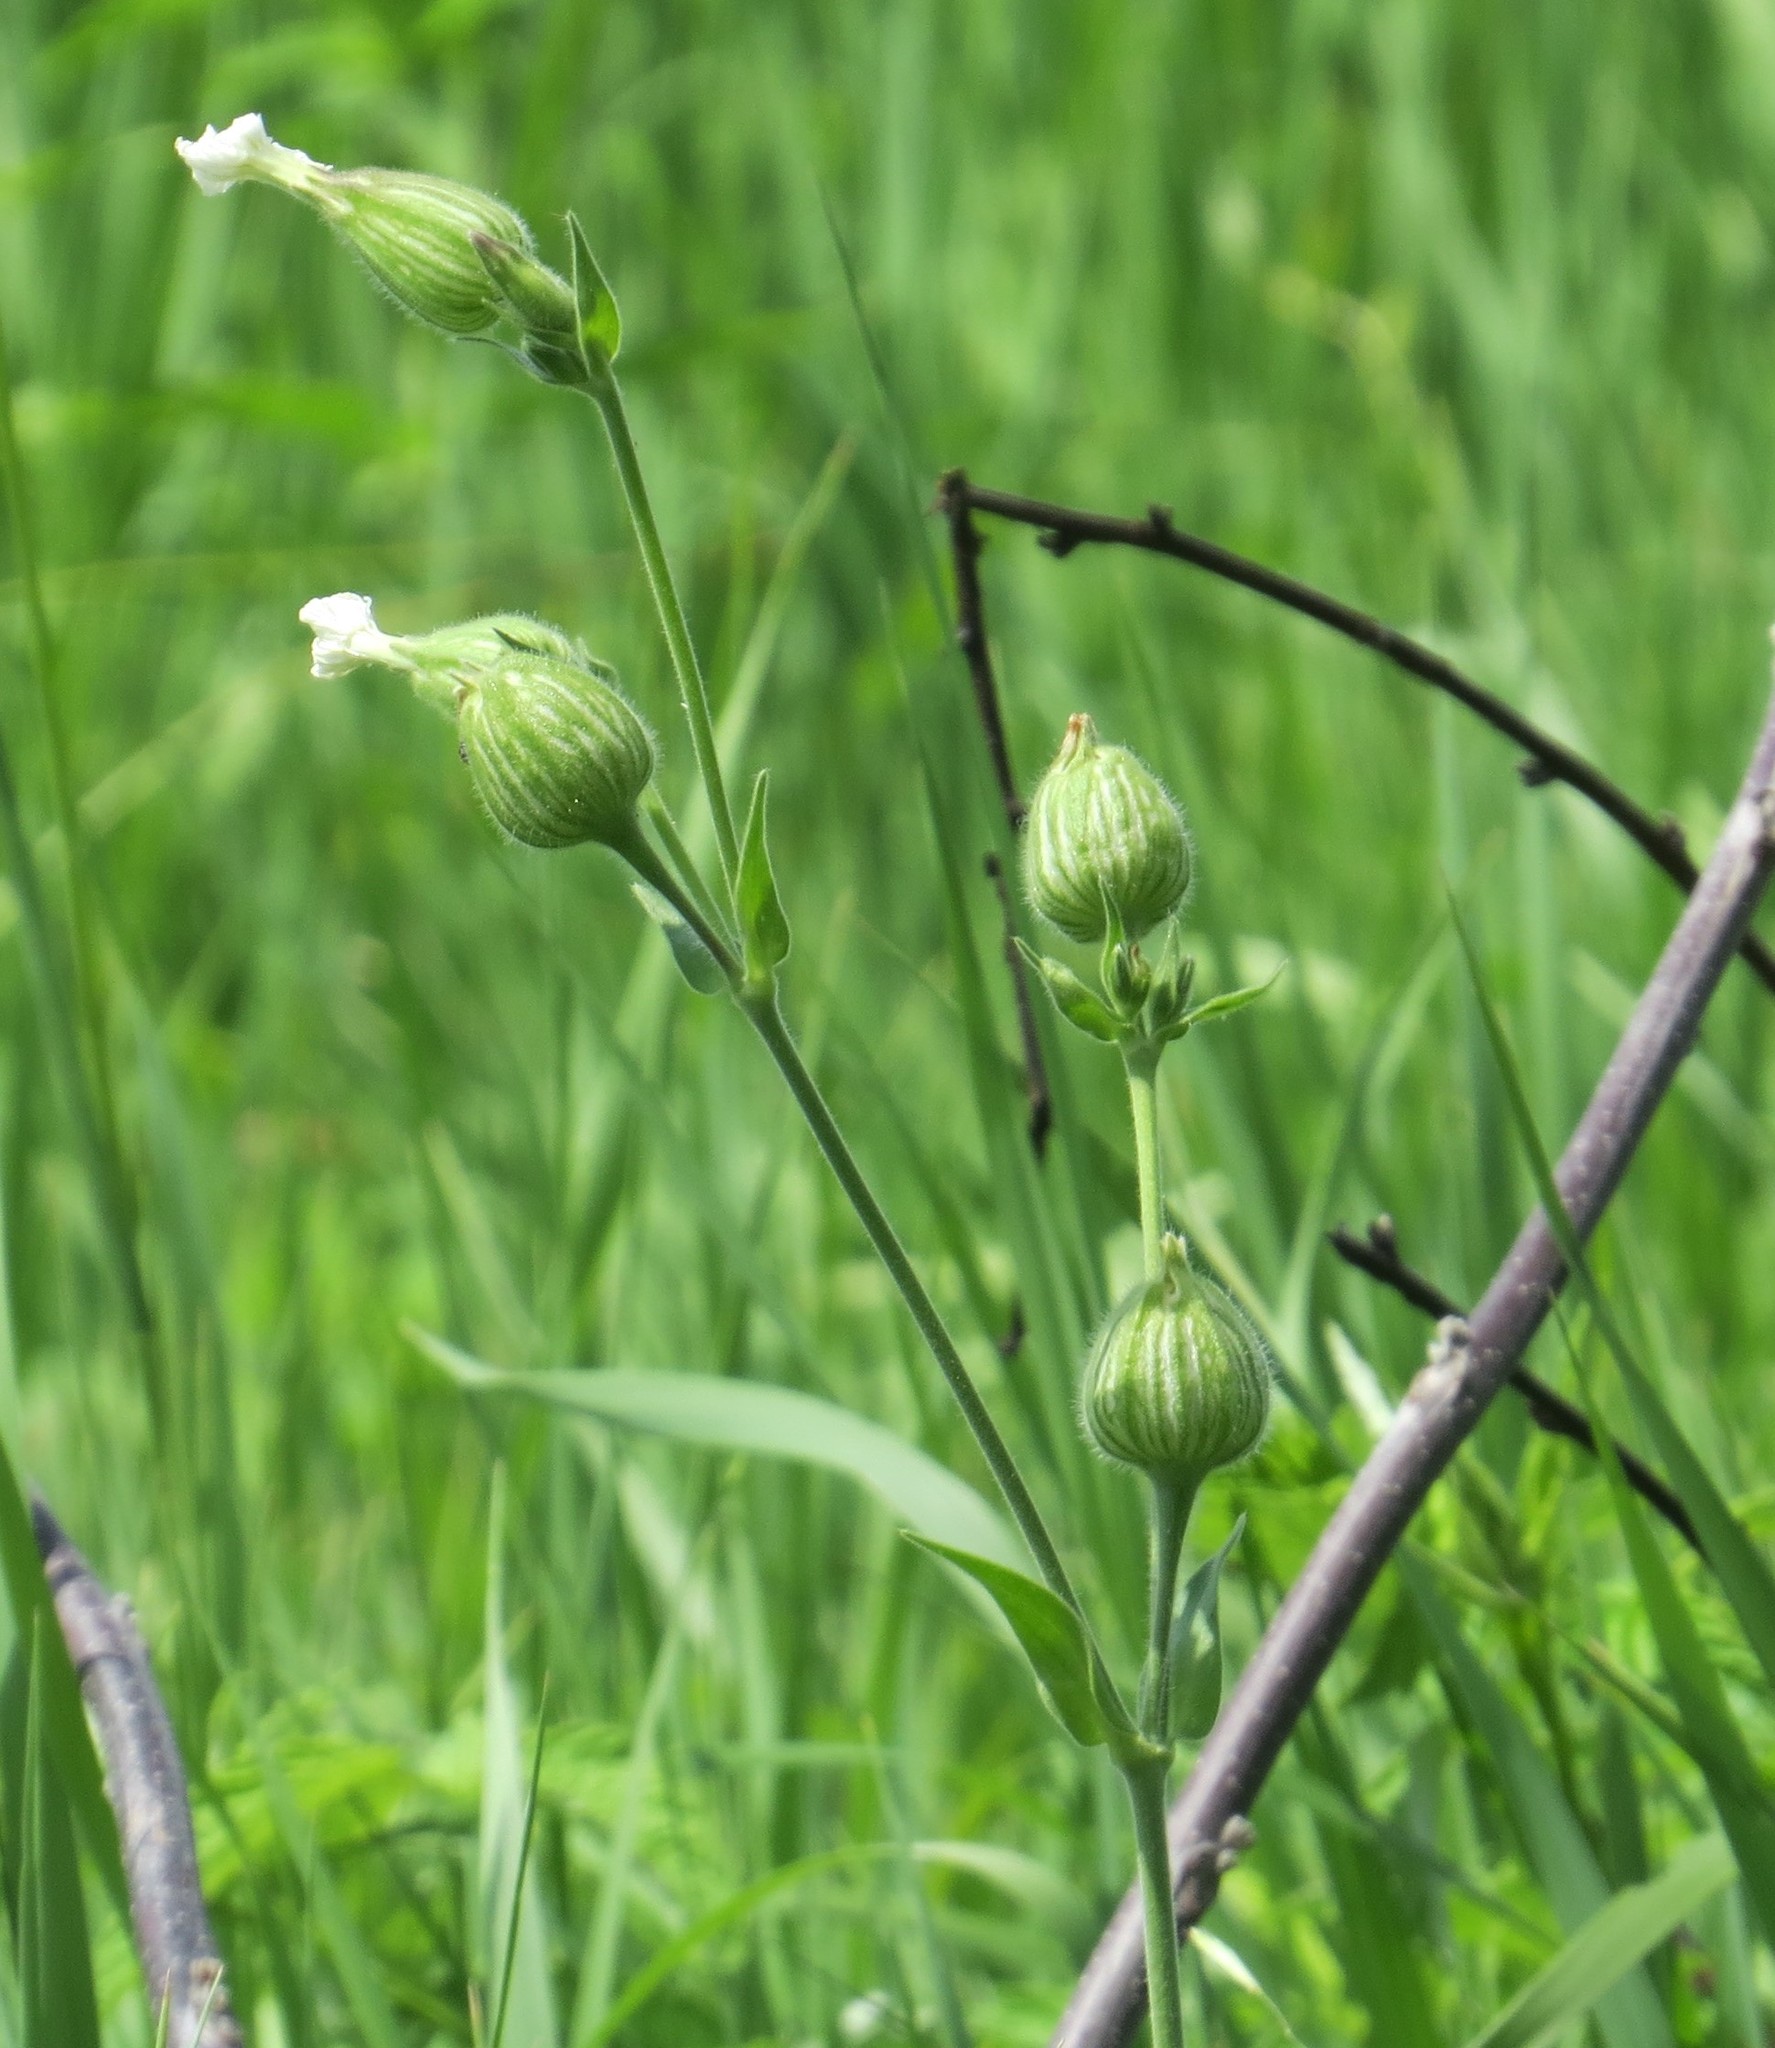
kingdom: Plantae
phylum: Tracheophyta
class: Magnoliopsida
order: Caryophyllales
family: Caryophyllaceae
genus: Silene
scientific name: Silene latifolia
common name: White campion
